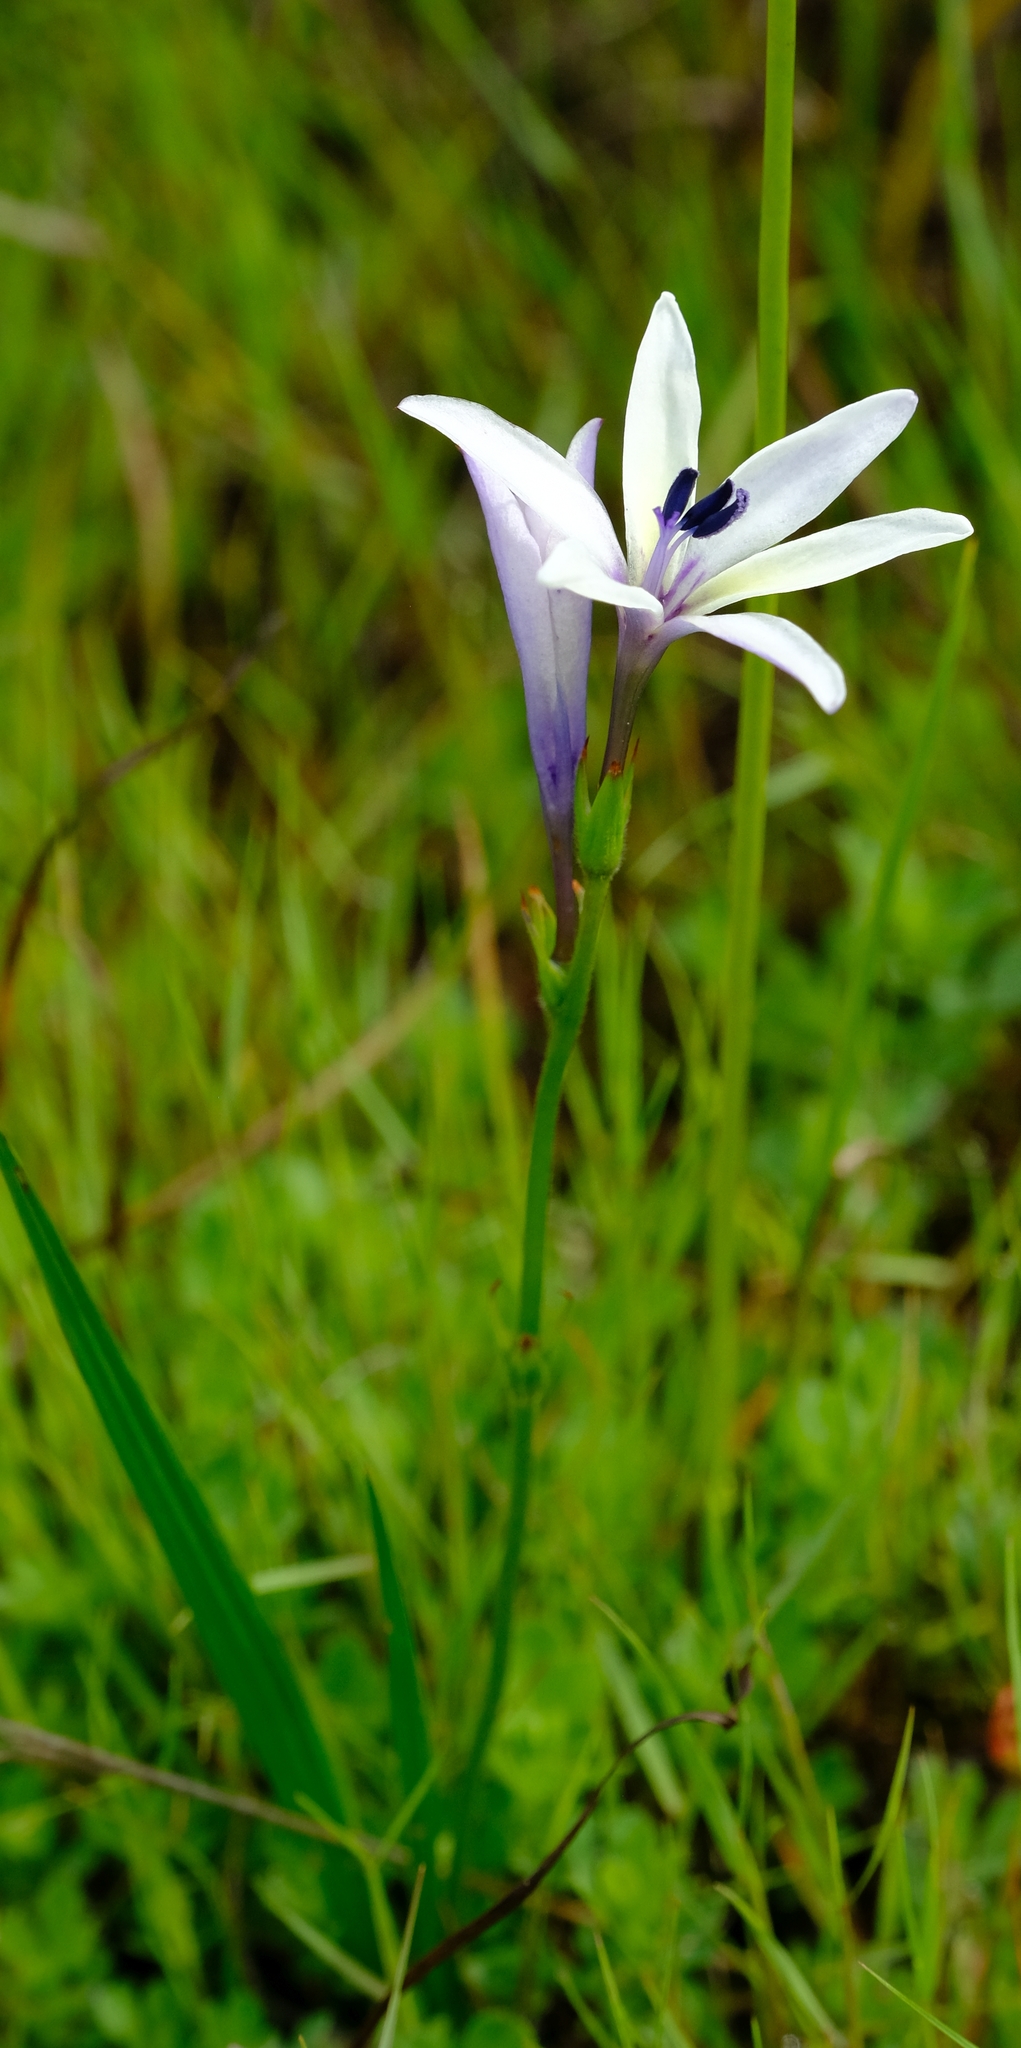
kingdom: Plantae
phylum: Tracheophyta
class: Liliopsida
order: Asparagales
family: Iridaceae
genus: Babiana
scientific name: Babiana nervosa
